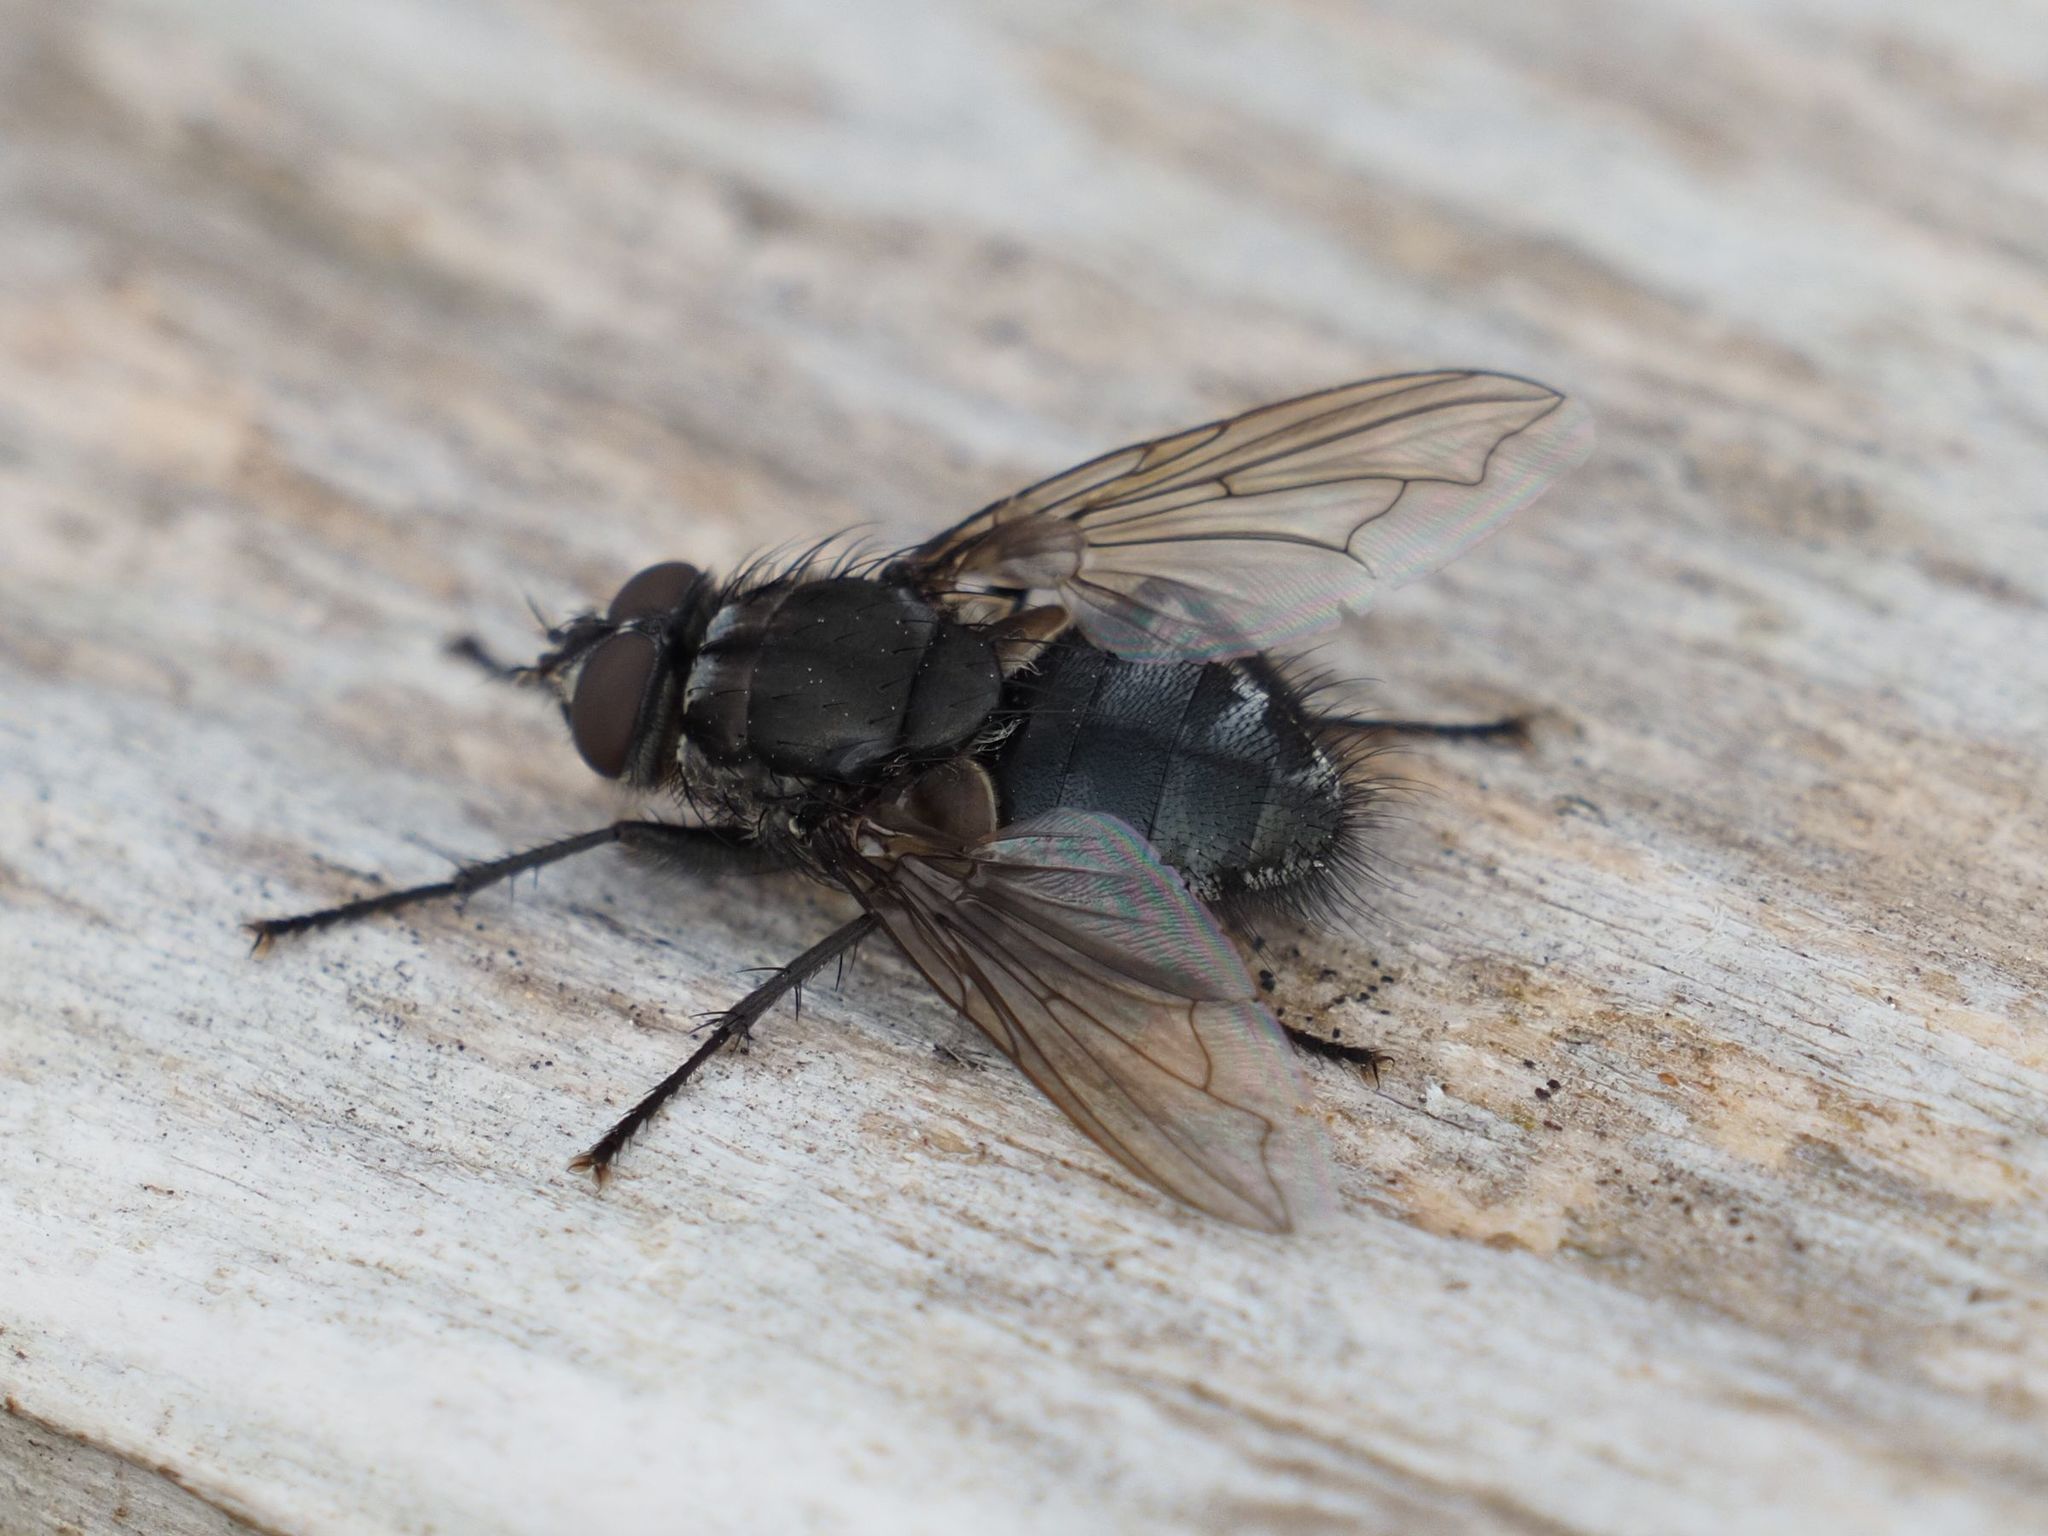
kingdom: Animalia
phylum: Arthropoda
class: Insecta
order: Diptera
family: Polleniidae
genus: Pollenia
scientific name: Pollenia vagabunda
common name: Vagabund cluster fly
